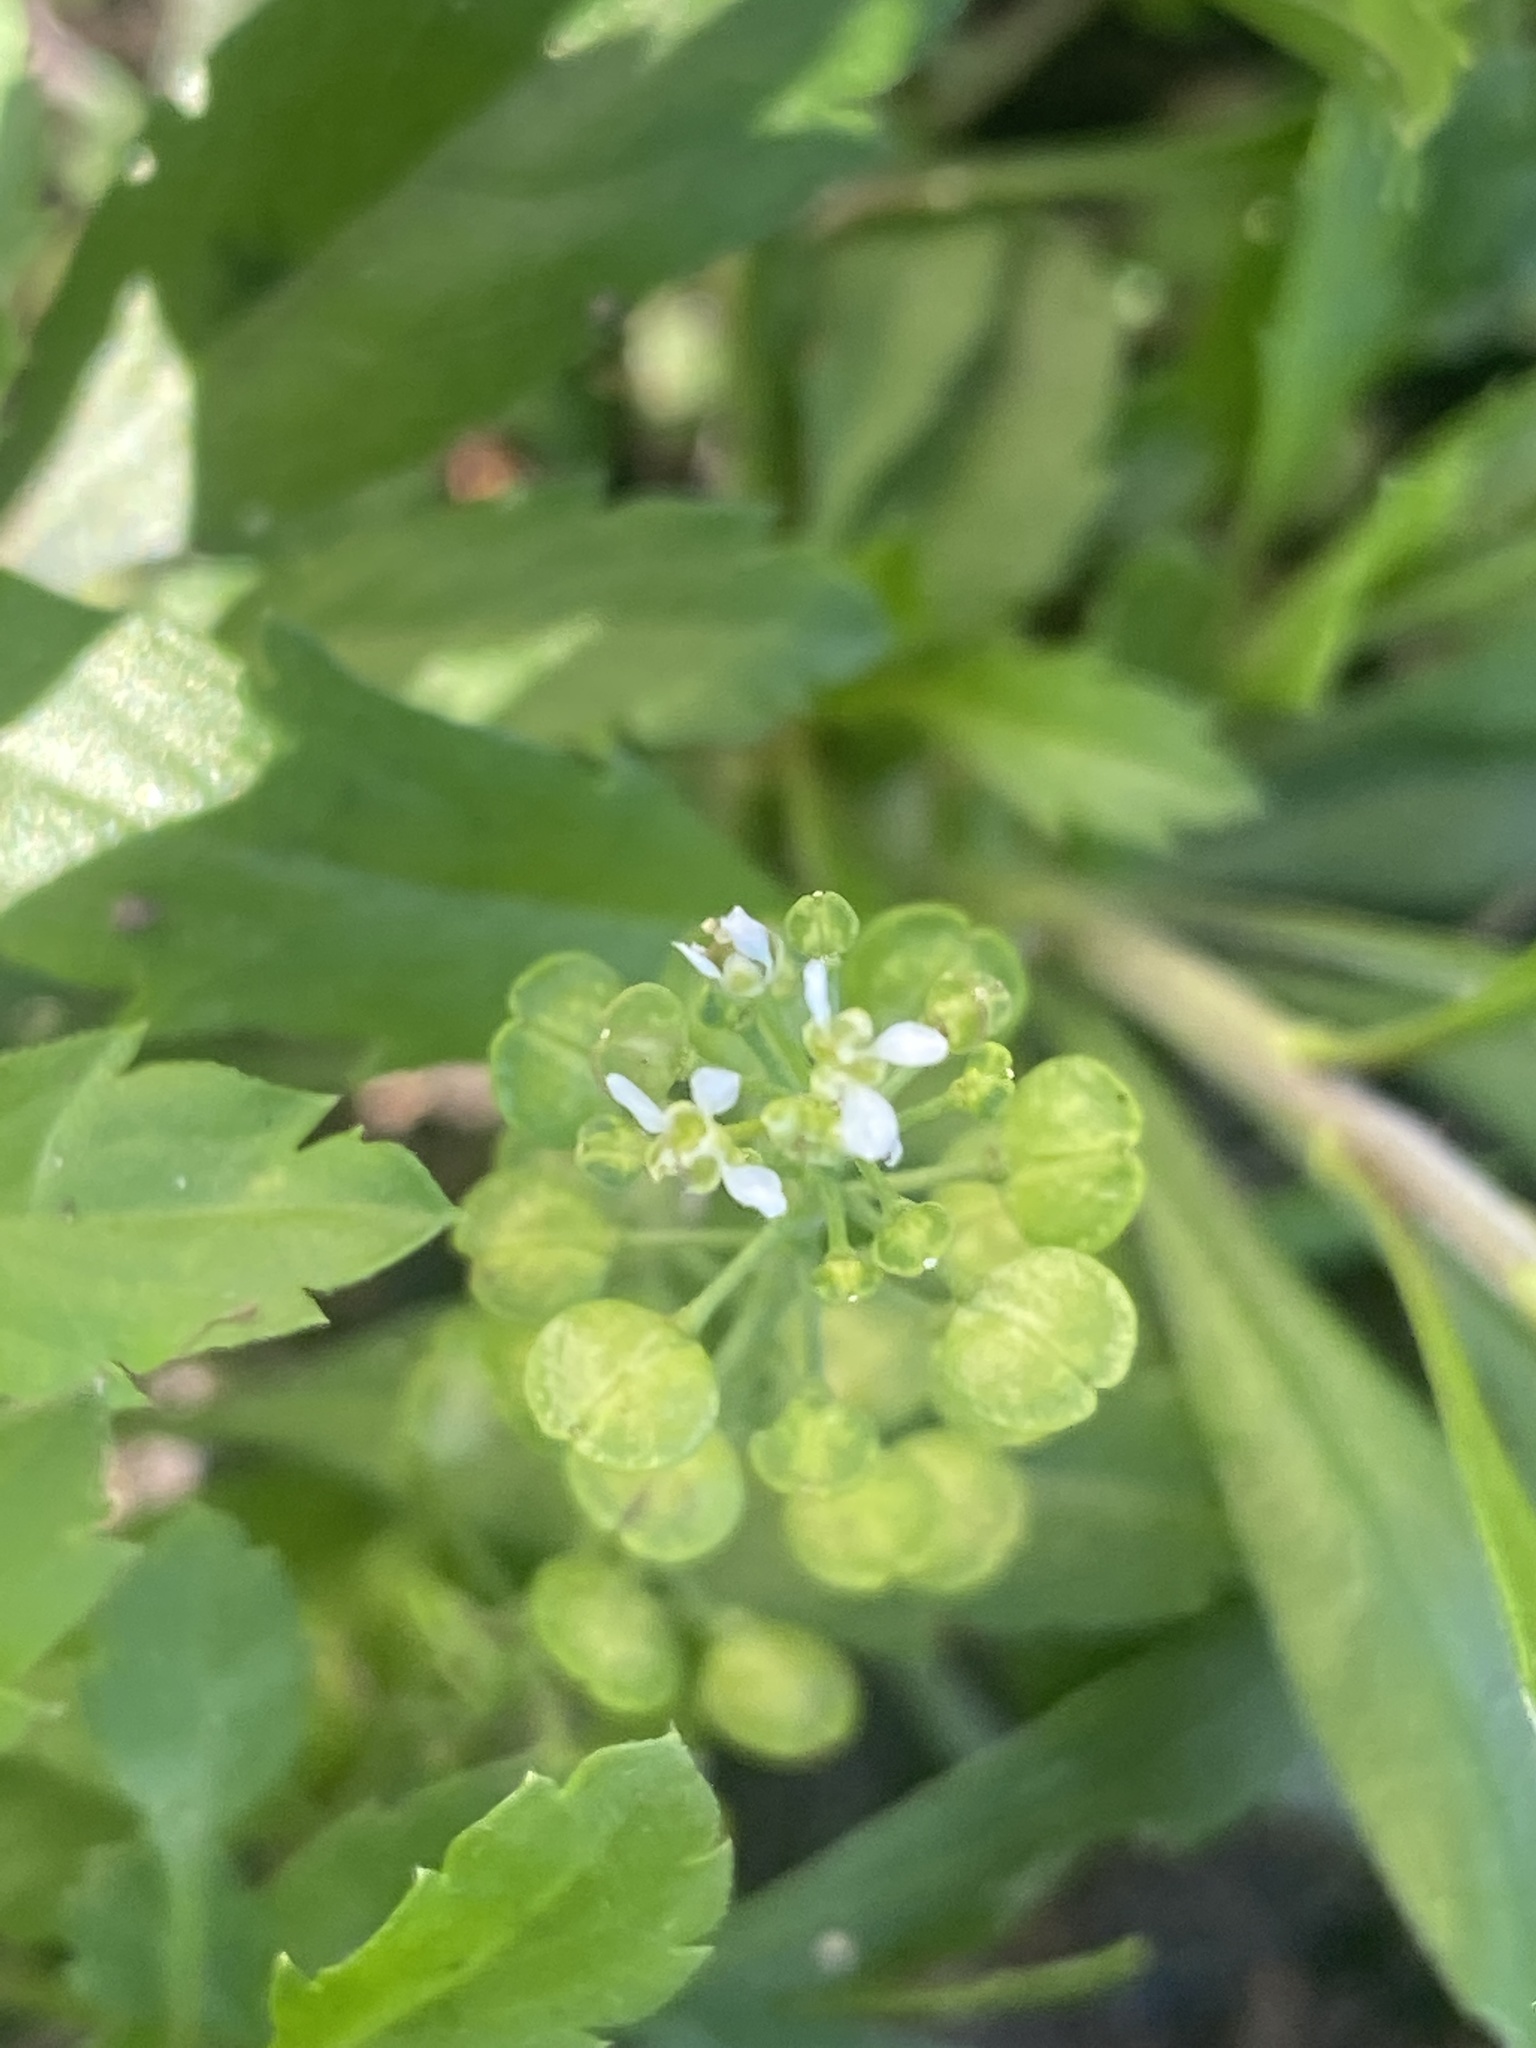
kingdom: Plantae
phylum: Tracheophyta
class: Magnoliopsida
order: Brassicales
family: Brassicaceae
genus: Lepidium
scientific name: Lepidium virginicum
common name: Least pepperwort
